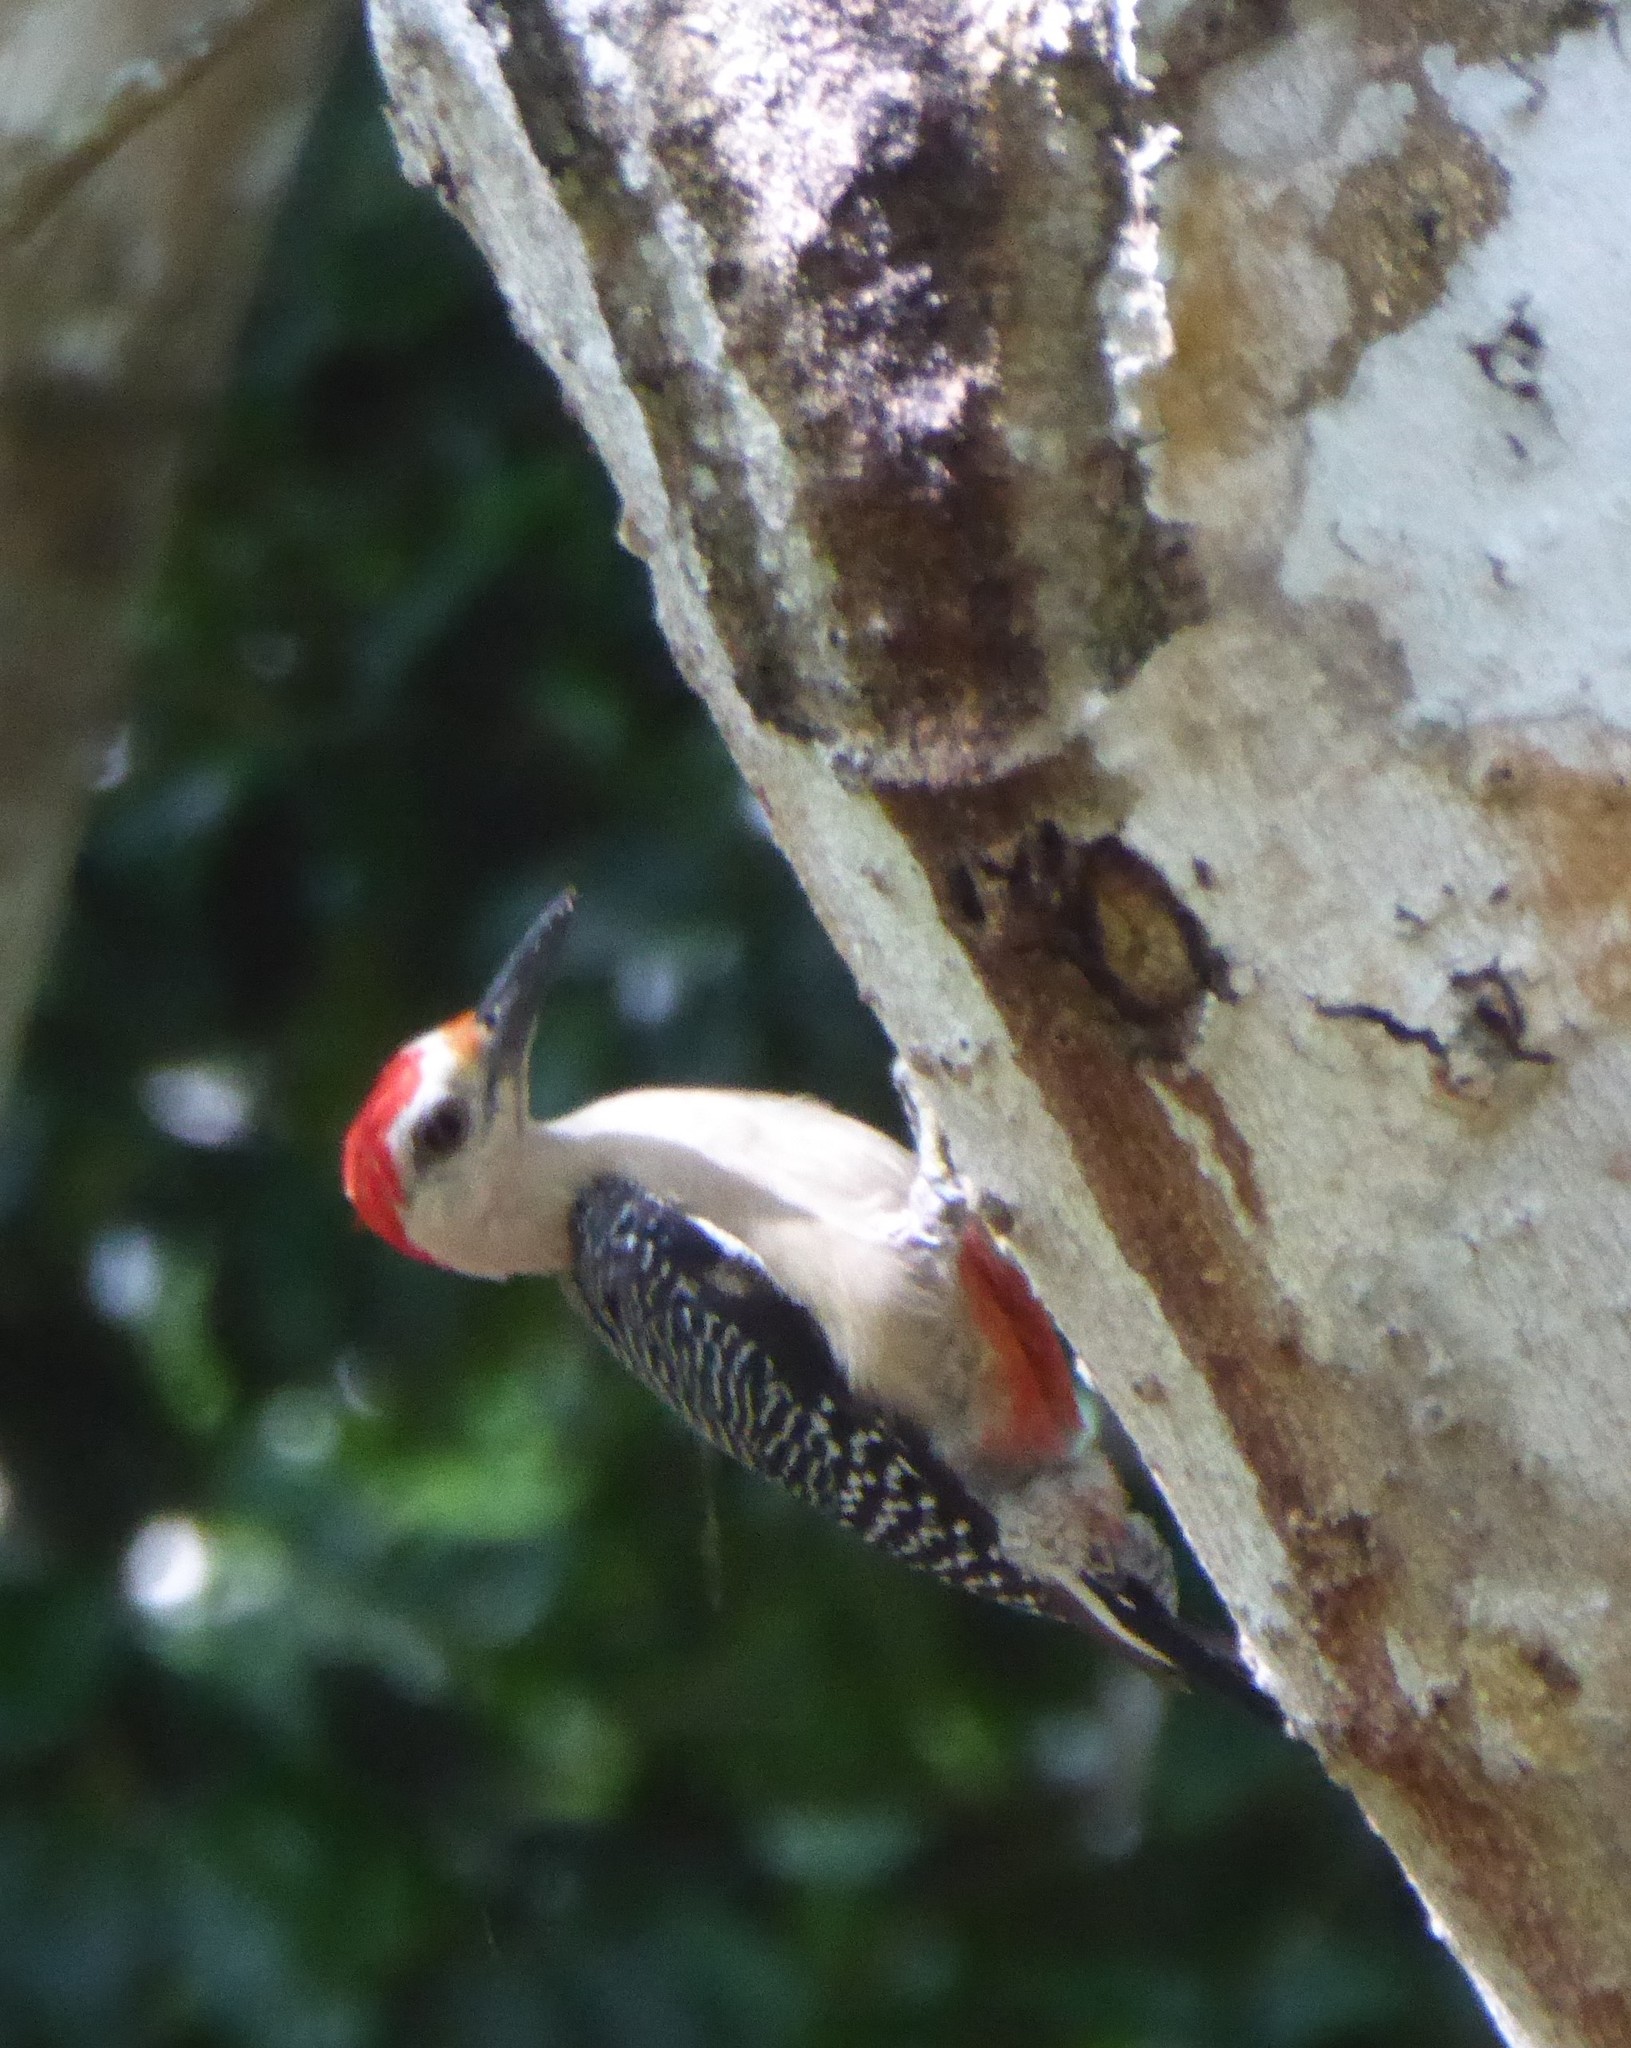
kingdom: Animalia
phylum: Chordata
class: Aves
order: Piciformes
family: Picidae
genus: Melanerpes
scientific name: Melanerpes santacruzi
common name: Velasquez's woodpecker
